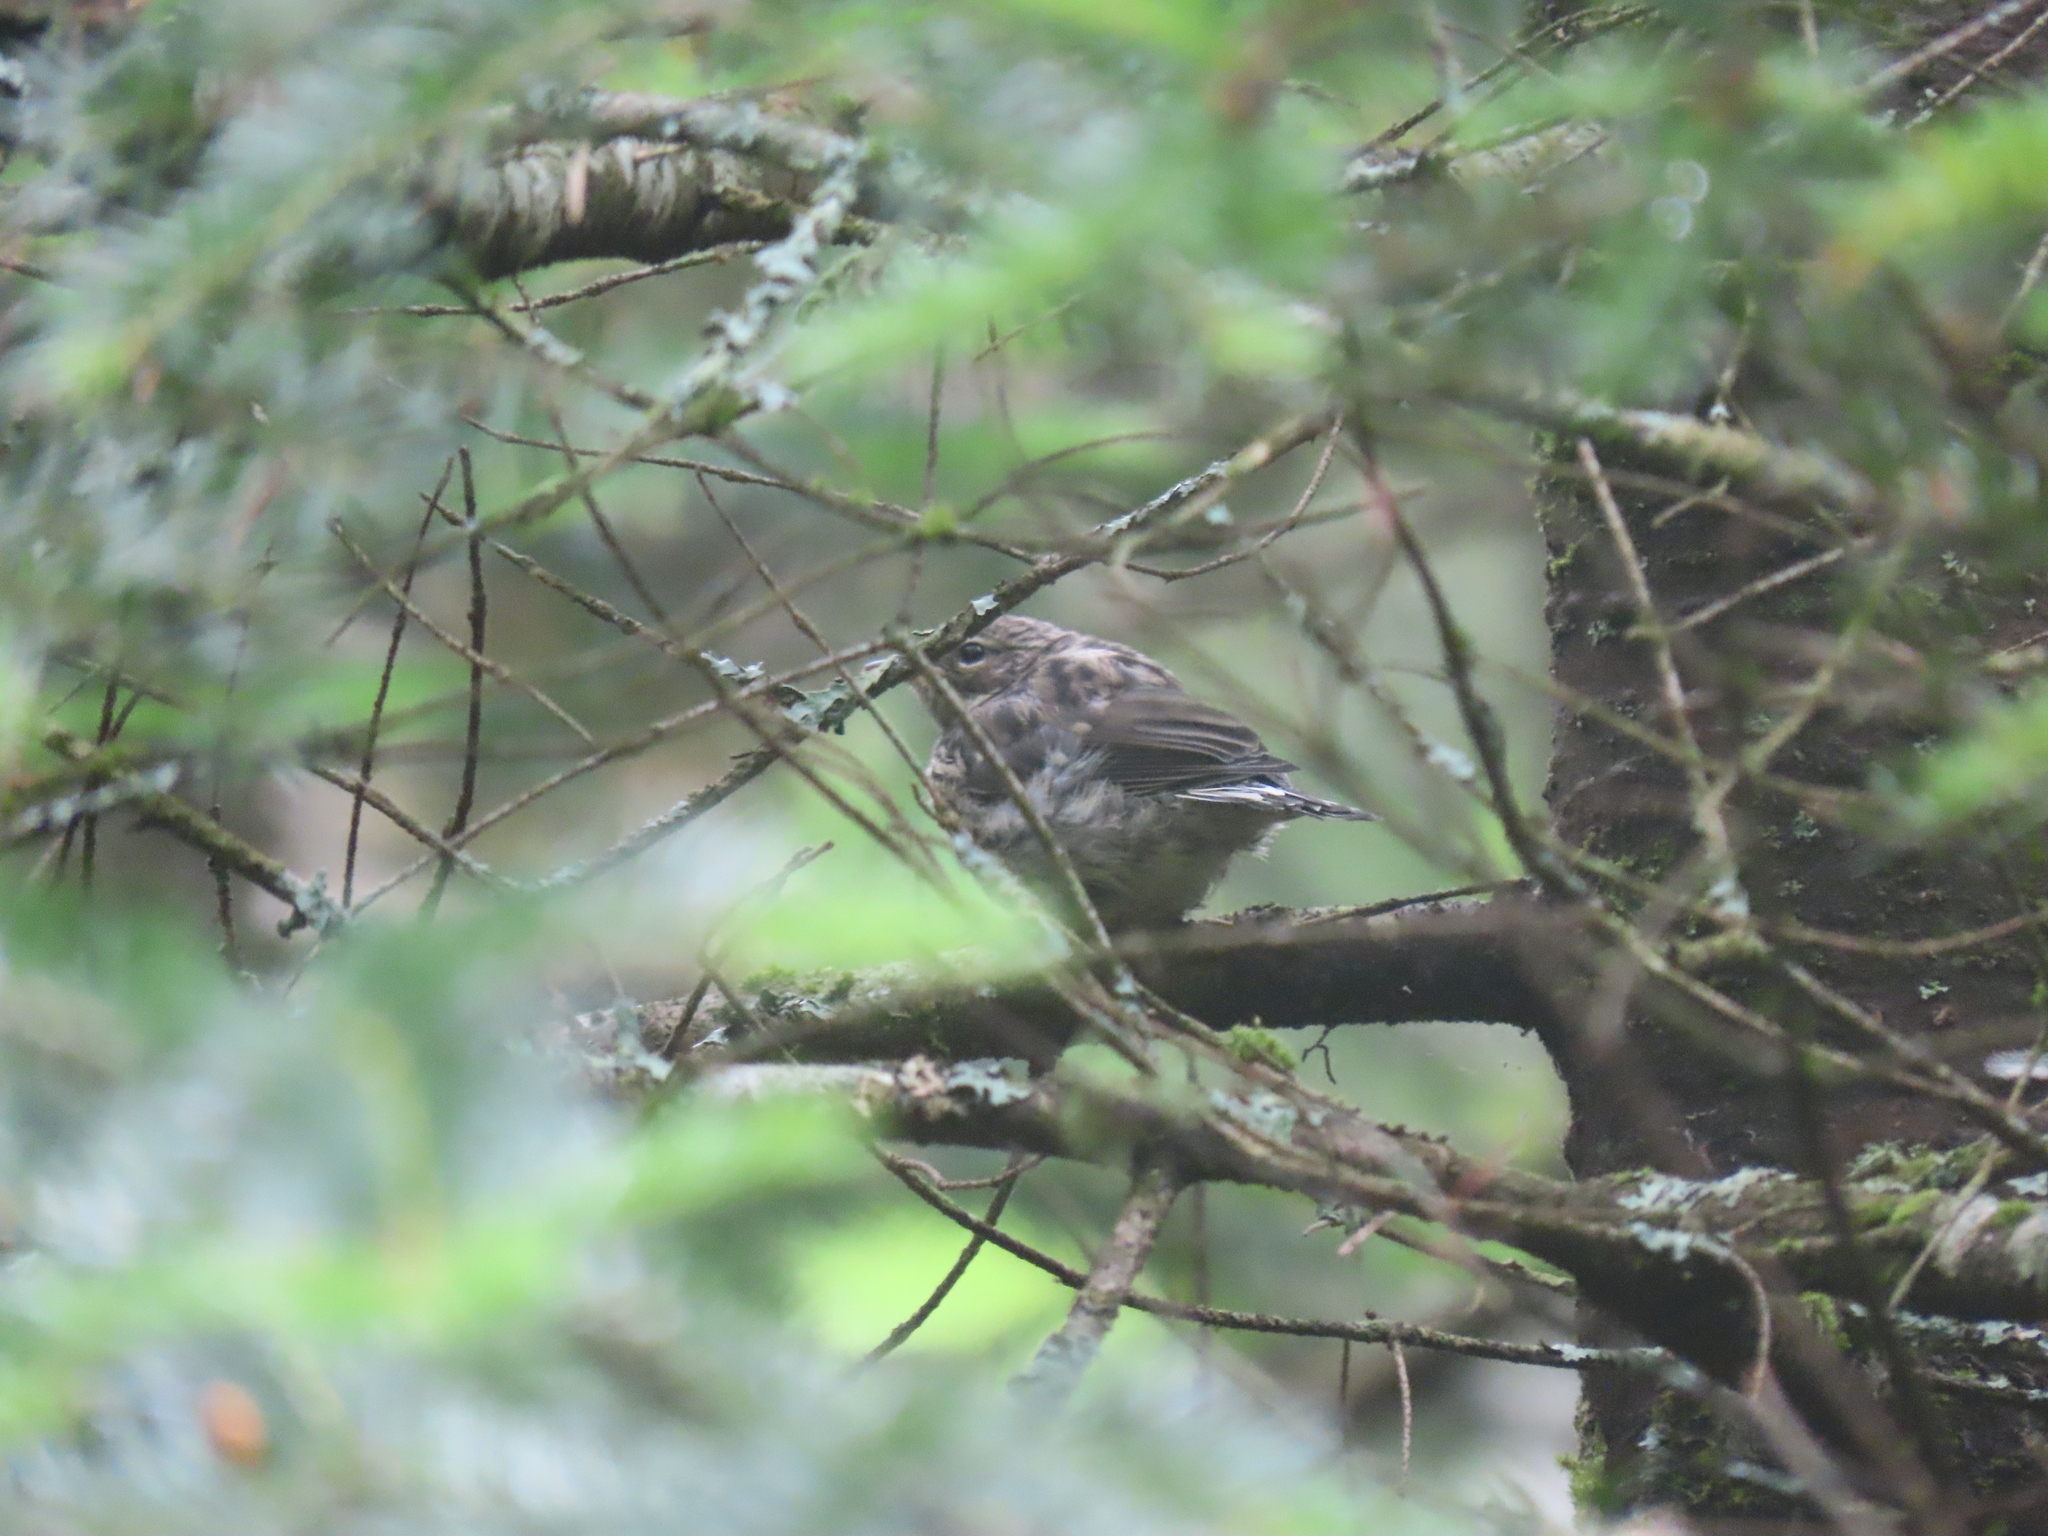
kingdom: Animalia
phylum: Chordata
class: Aves
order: Passeriformes
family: Parulidae
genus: Setophaga
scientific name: Setophaga coronata
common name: Myrtle warbler
